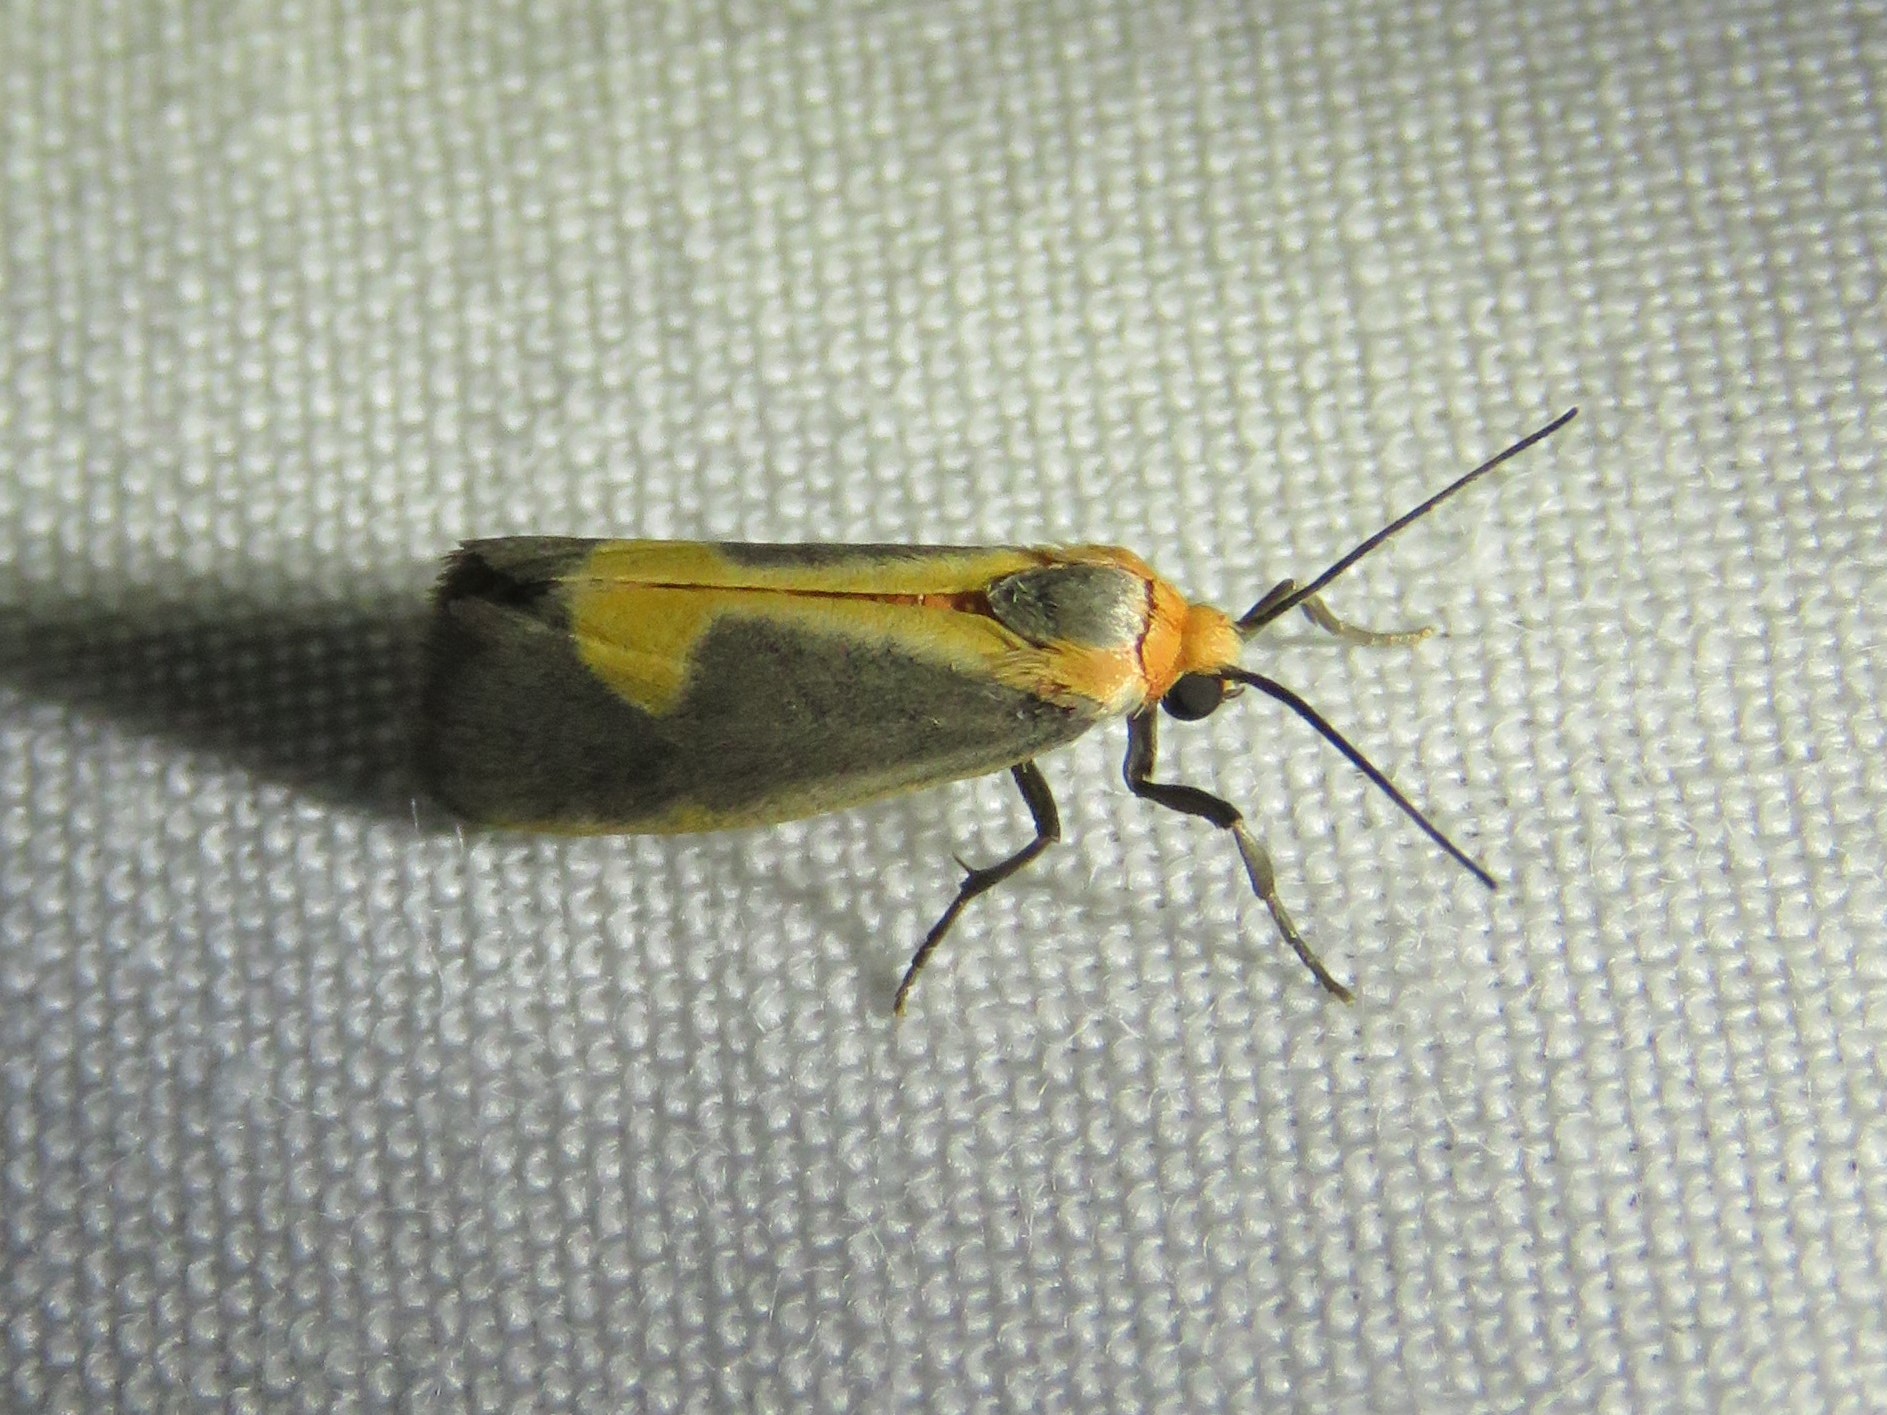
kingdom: Animalia
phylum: Arthropoda
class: Insecta
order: Lepidoptera
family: Erebidae
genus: Cisthene
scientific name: Cisthene plumbea
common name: Lead colored lichen moth
